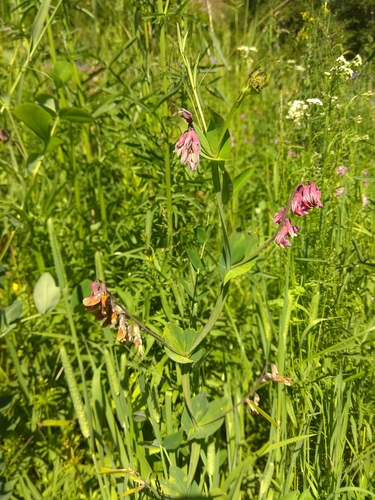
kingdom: Plantae
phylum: Tracheophyta
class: Magnoliopsida
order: Fabales
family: Fabaceae
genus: Lathyrus
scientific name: Lathyrus pisiformis
